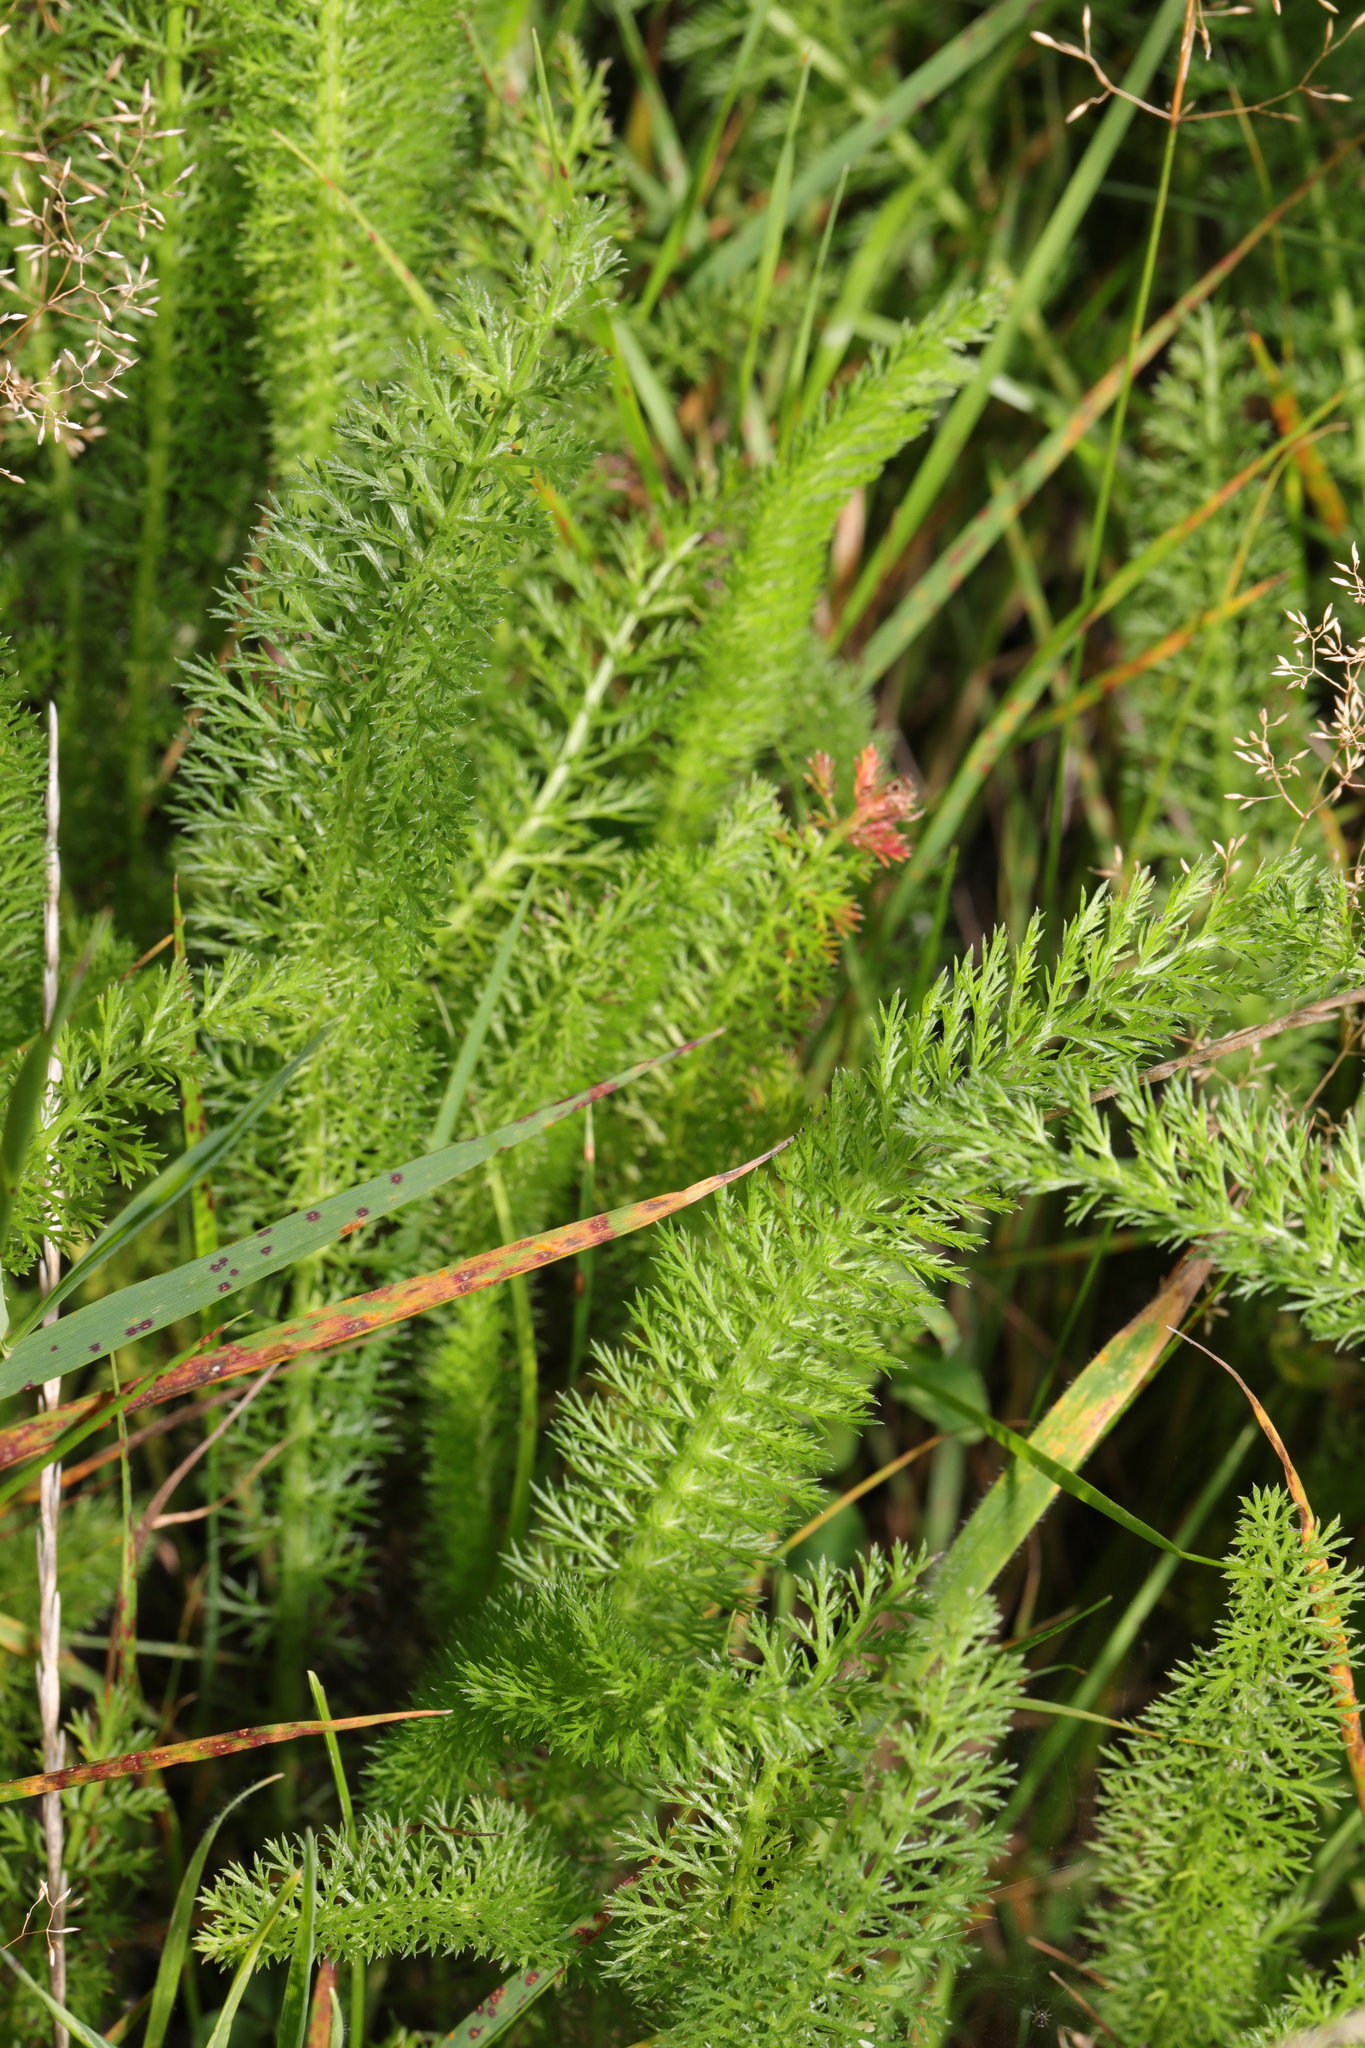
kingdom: Plantae
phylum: Tracheophyta
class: Magnoliopsida
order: Asterales
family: Asteraceae
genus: Achillea
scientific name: Achillea millefolium
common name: Yarrow
